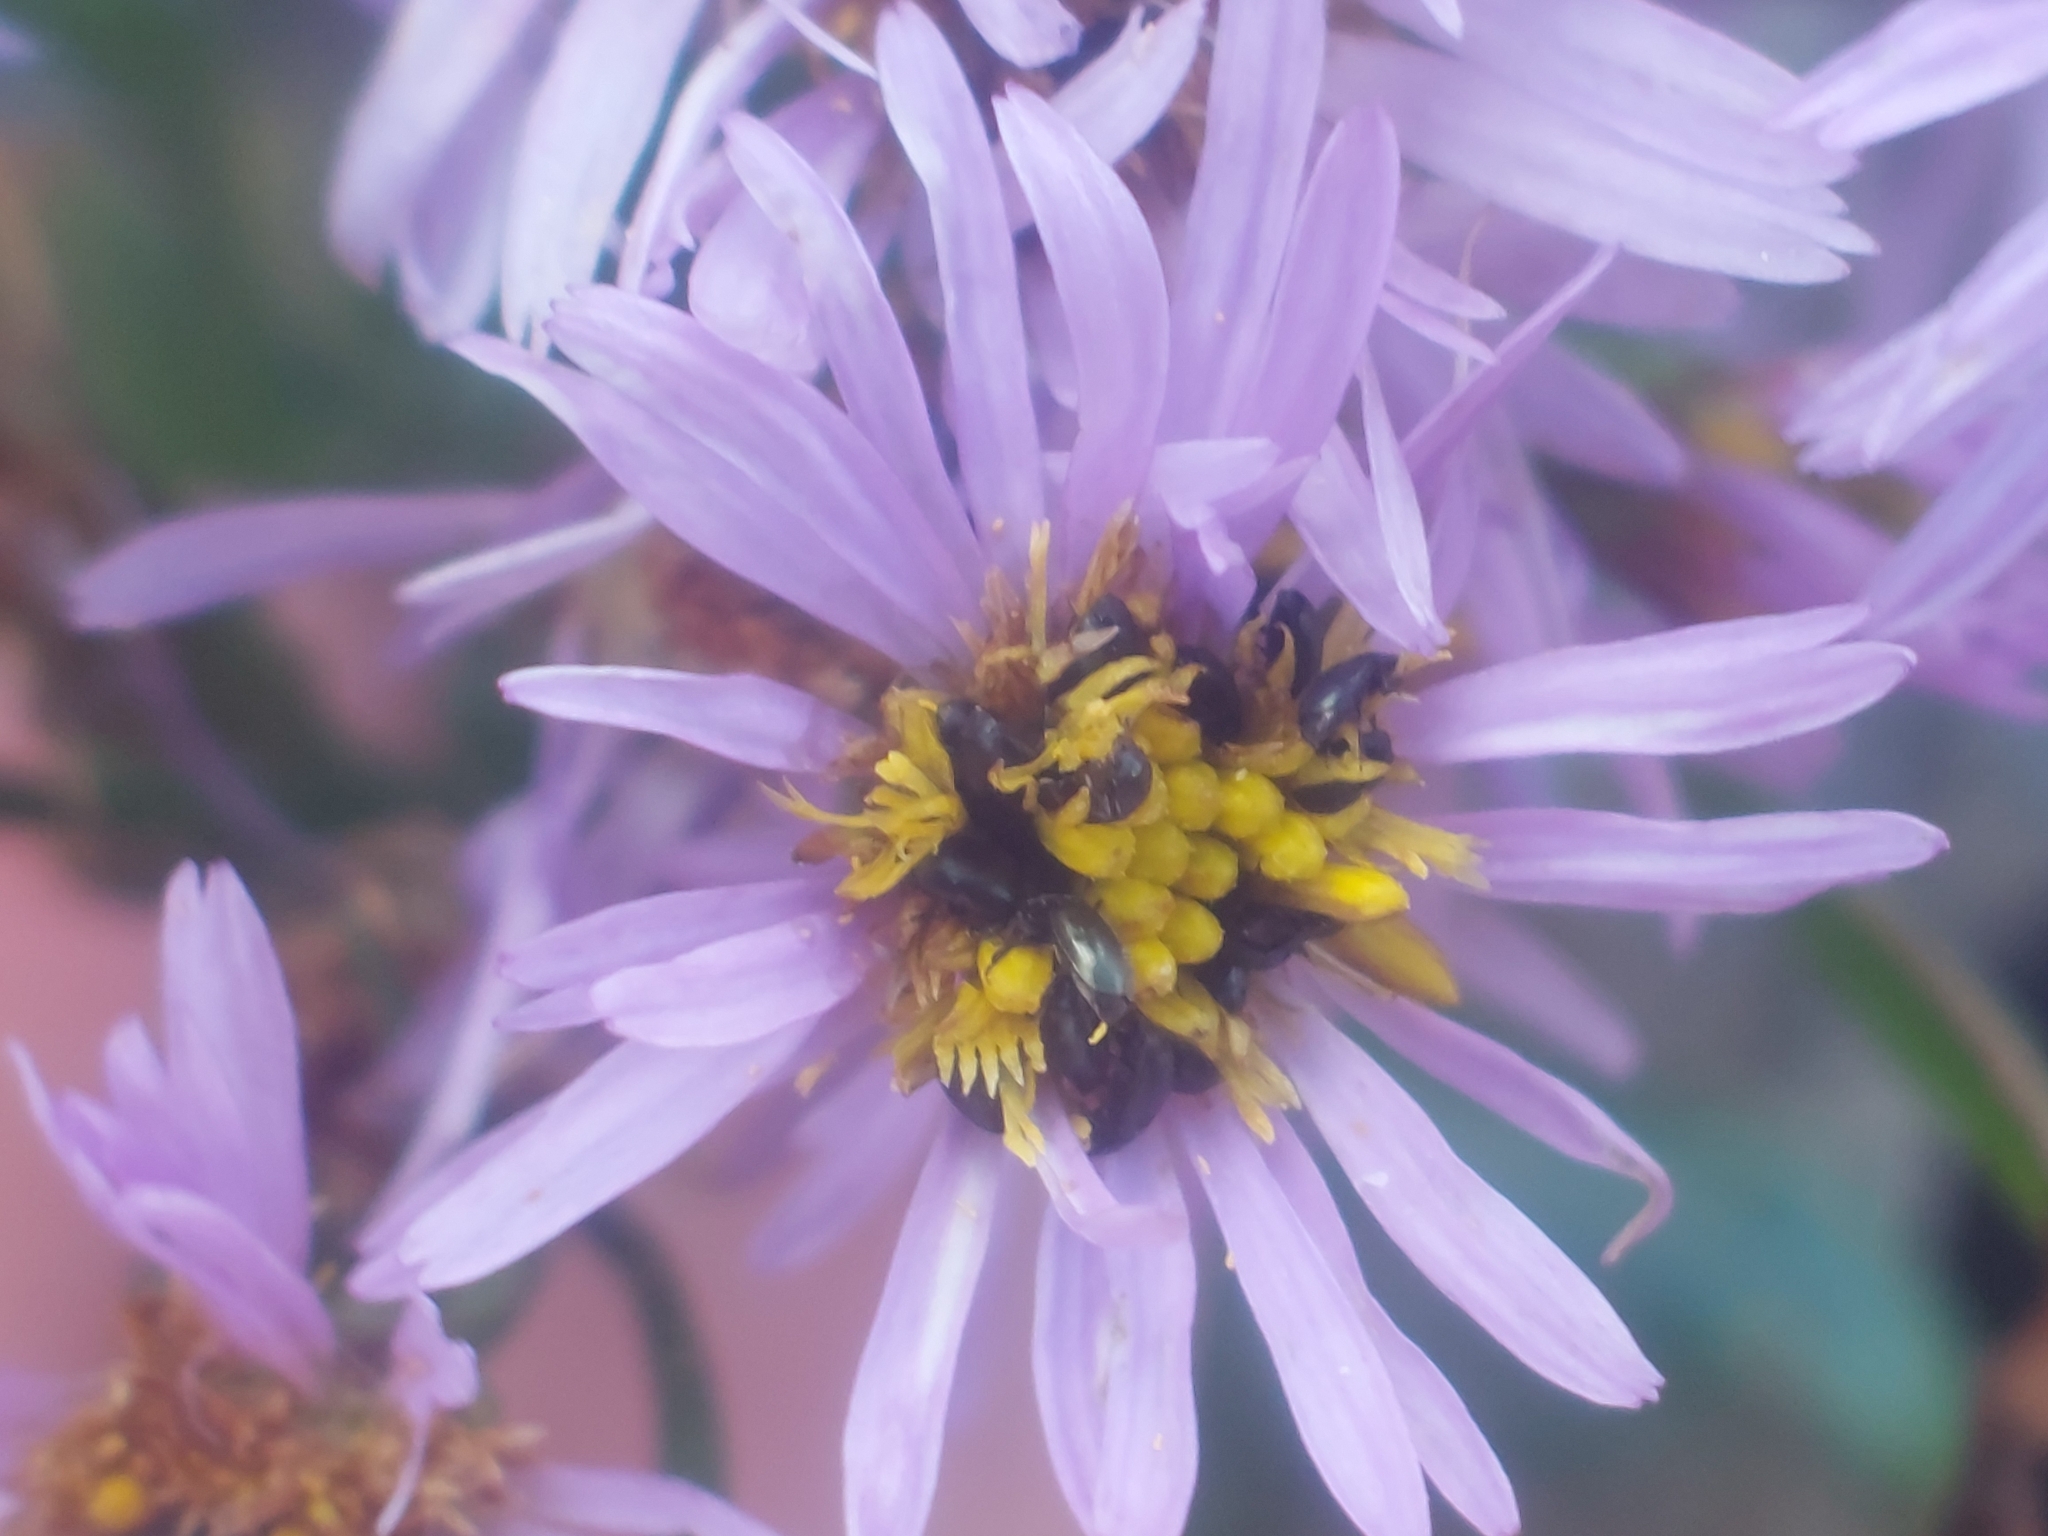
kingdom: Plantae
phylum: Tracheophyta
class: Magnoliopsida
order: Asterales
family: Asteraceae
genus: Tripolium
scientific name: Tripolium pannonicum
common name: Sea aster
